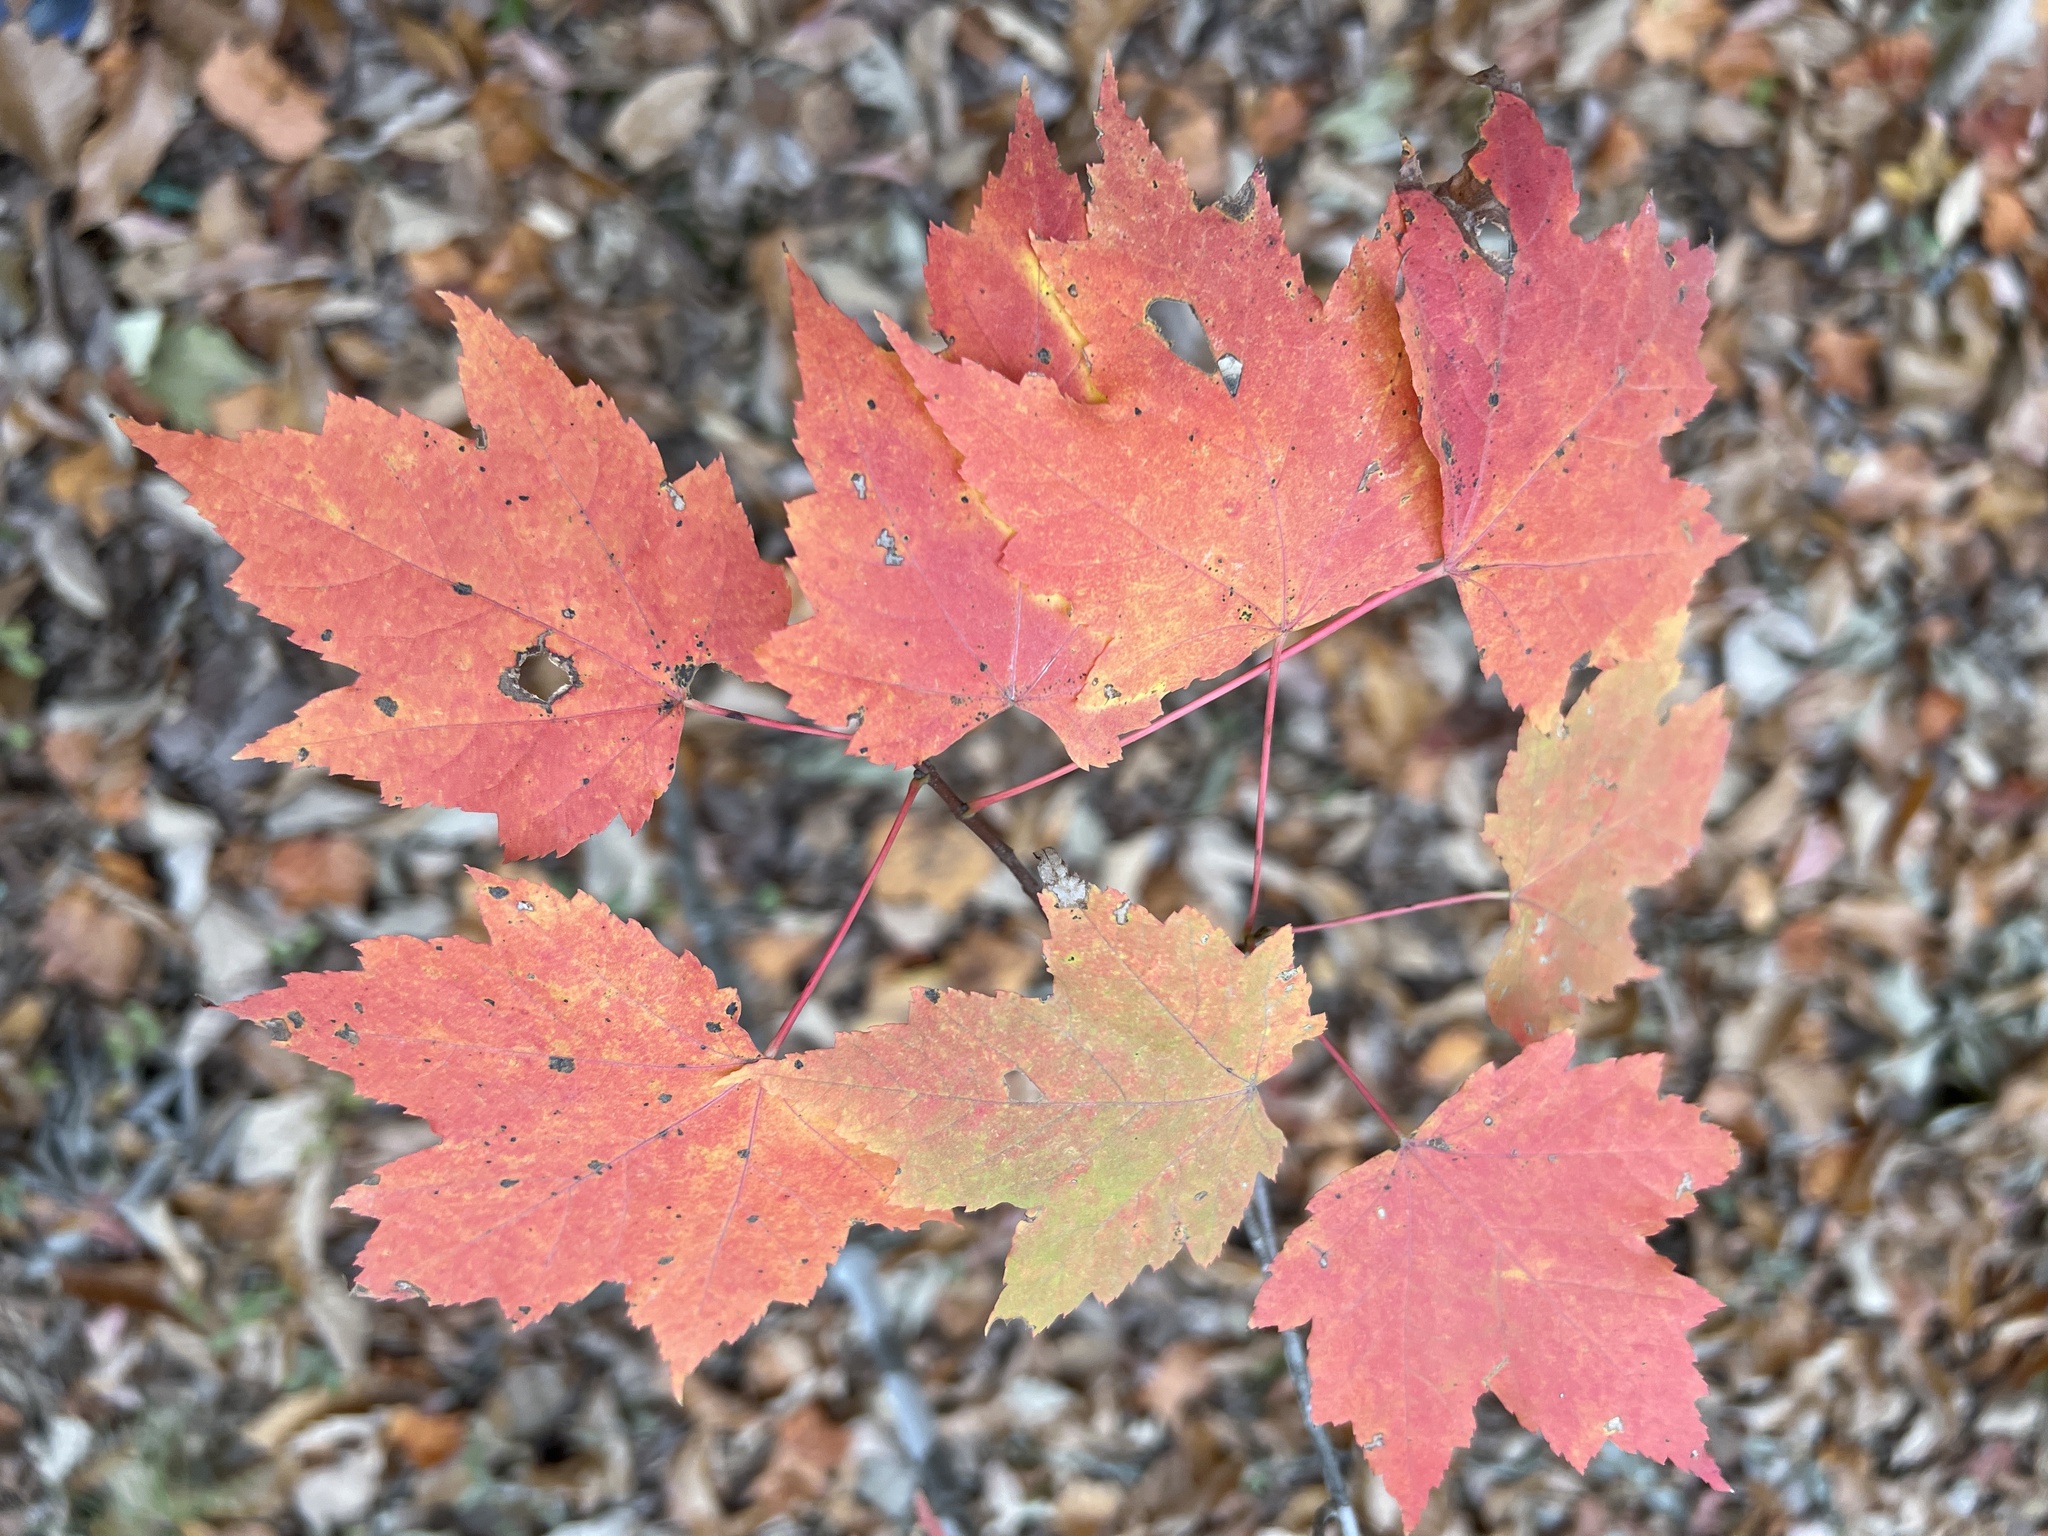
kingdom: Plantae
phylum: Tracheophyta
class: Magnoliopsida
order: Sapindales
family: Sapindaceae
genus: Acer
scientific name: Acer rubrum
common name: Red maple
